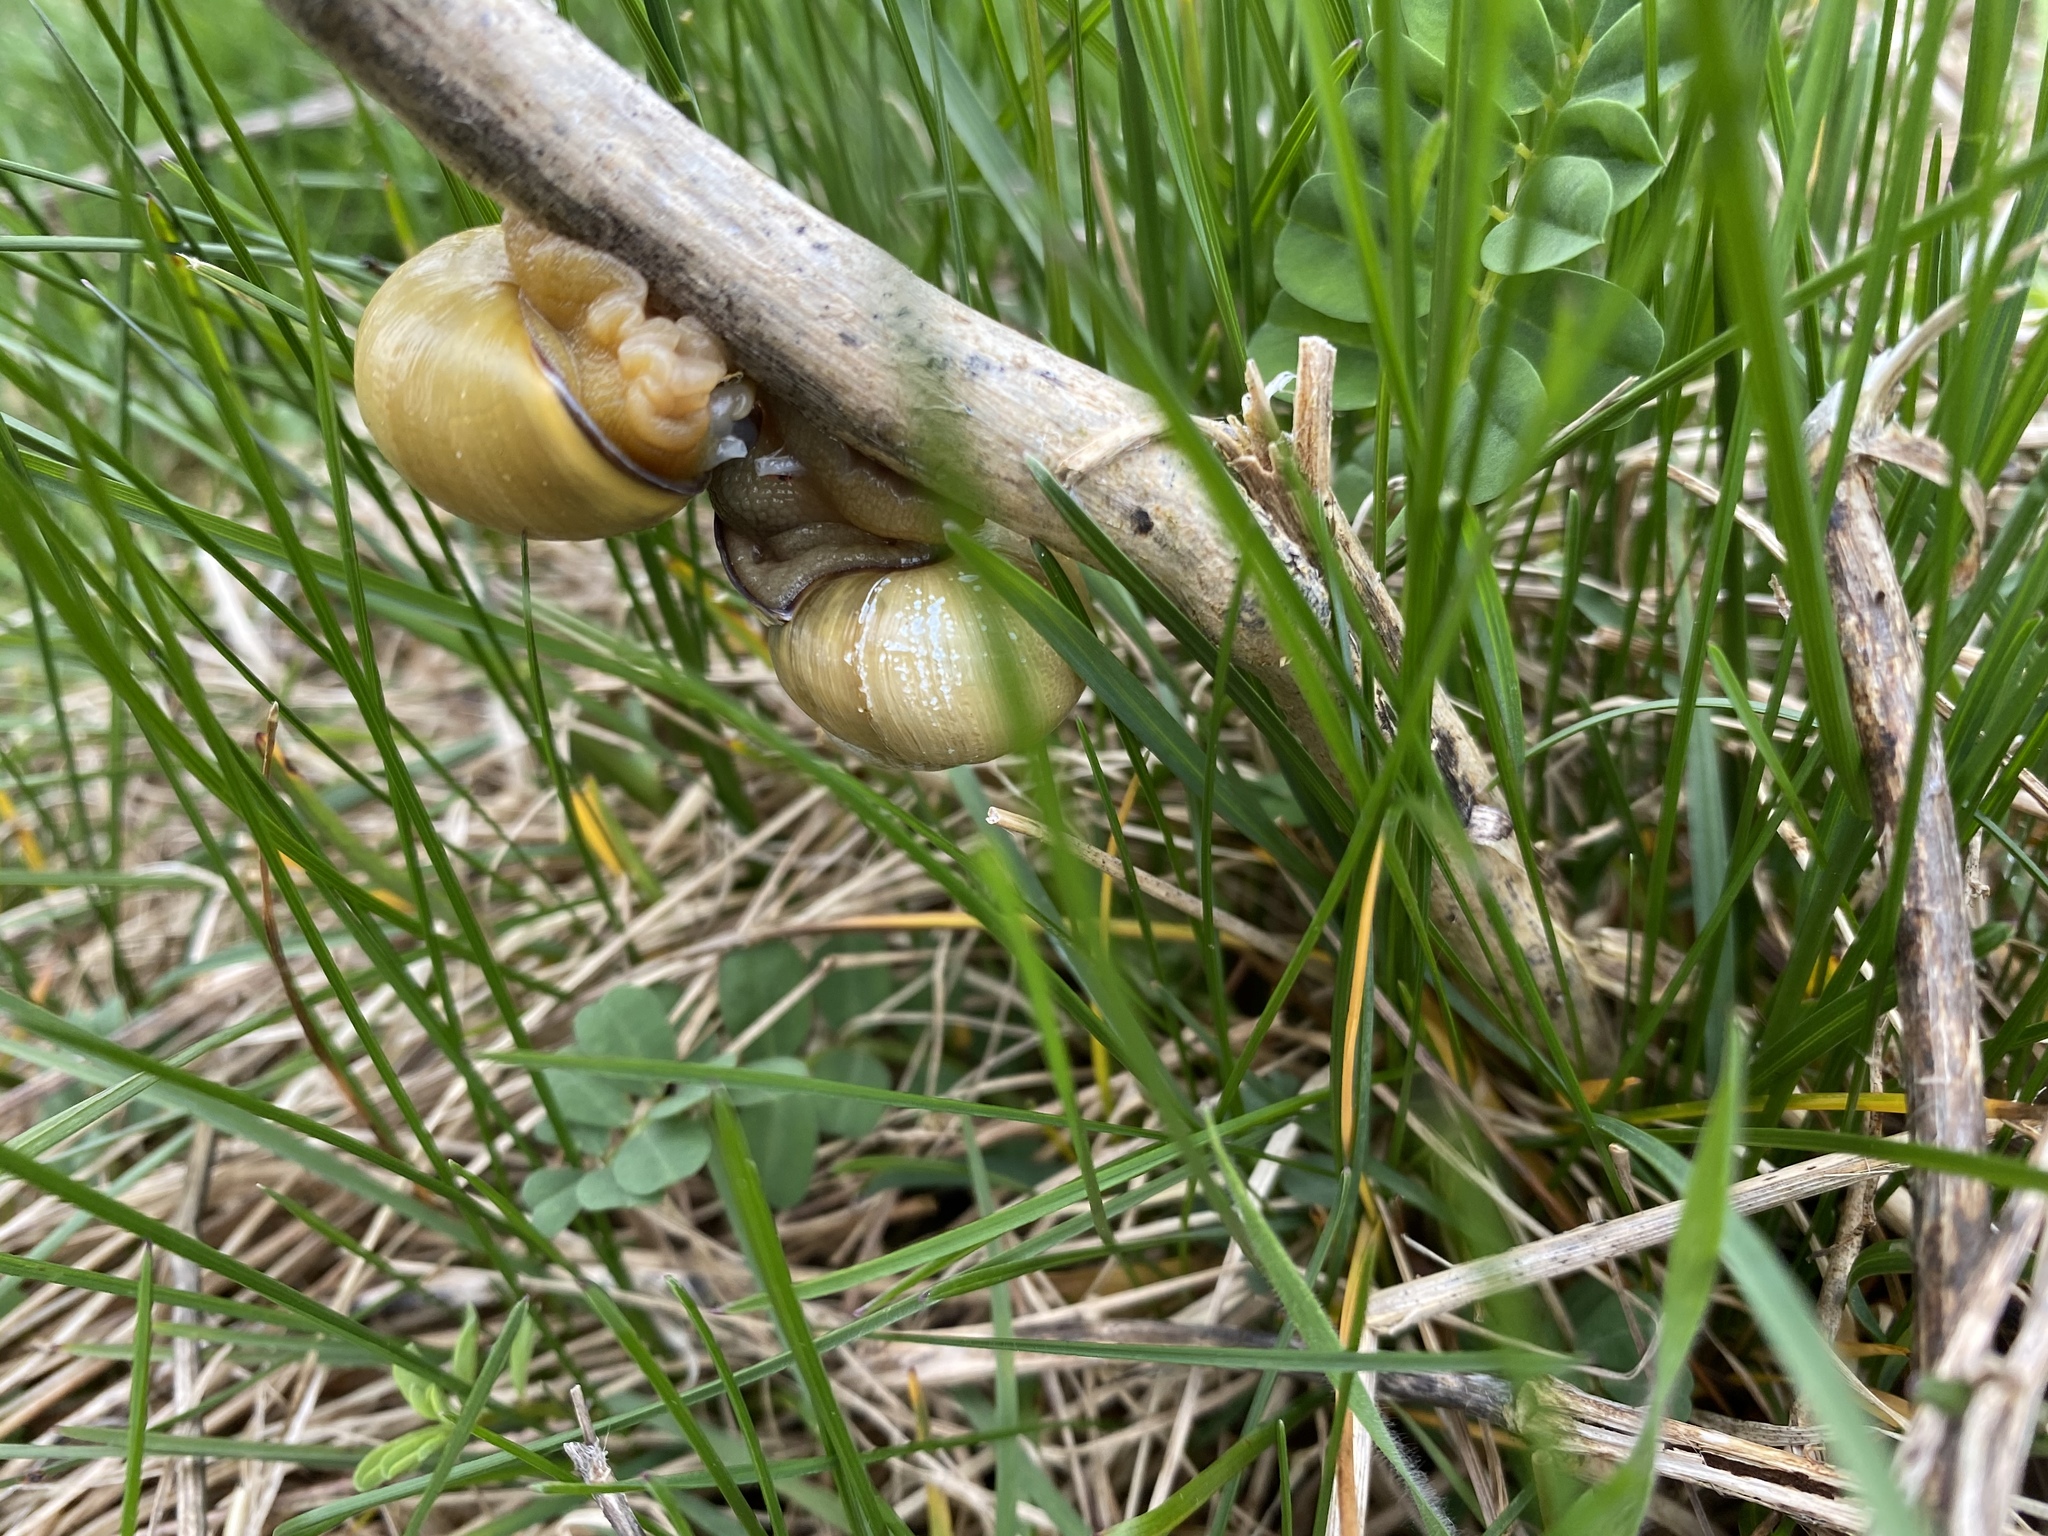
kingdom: Animalia
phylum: Mollusca
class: Gastropoda
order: Stylommatophora
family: Helicidae
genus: Cepaea
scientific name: Cepaea nemoralis
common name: Grovesnail
